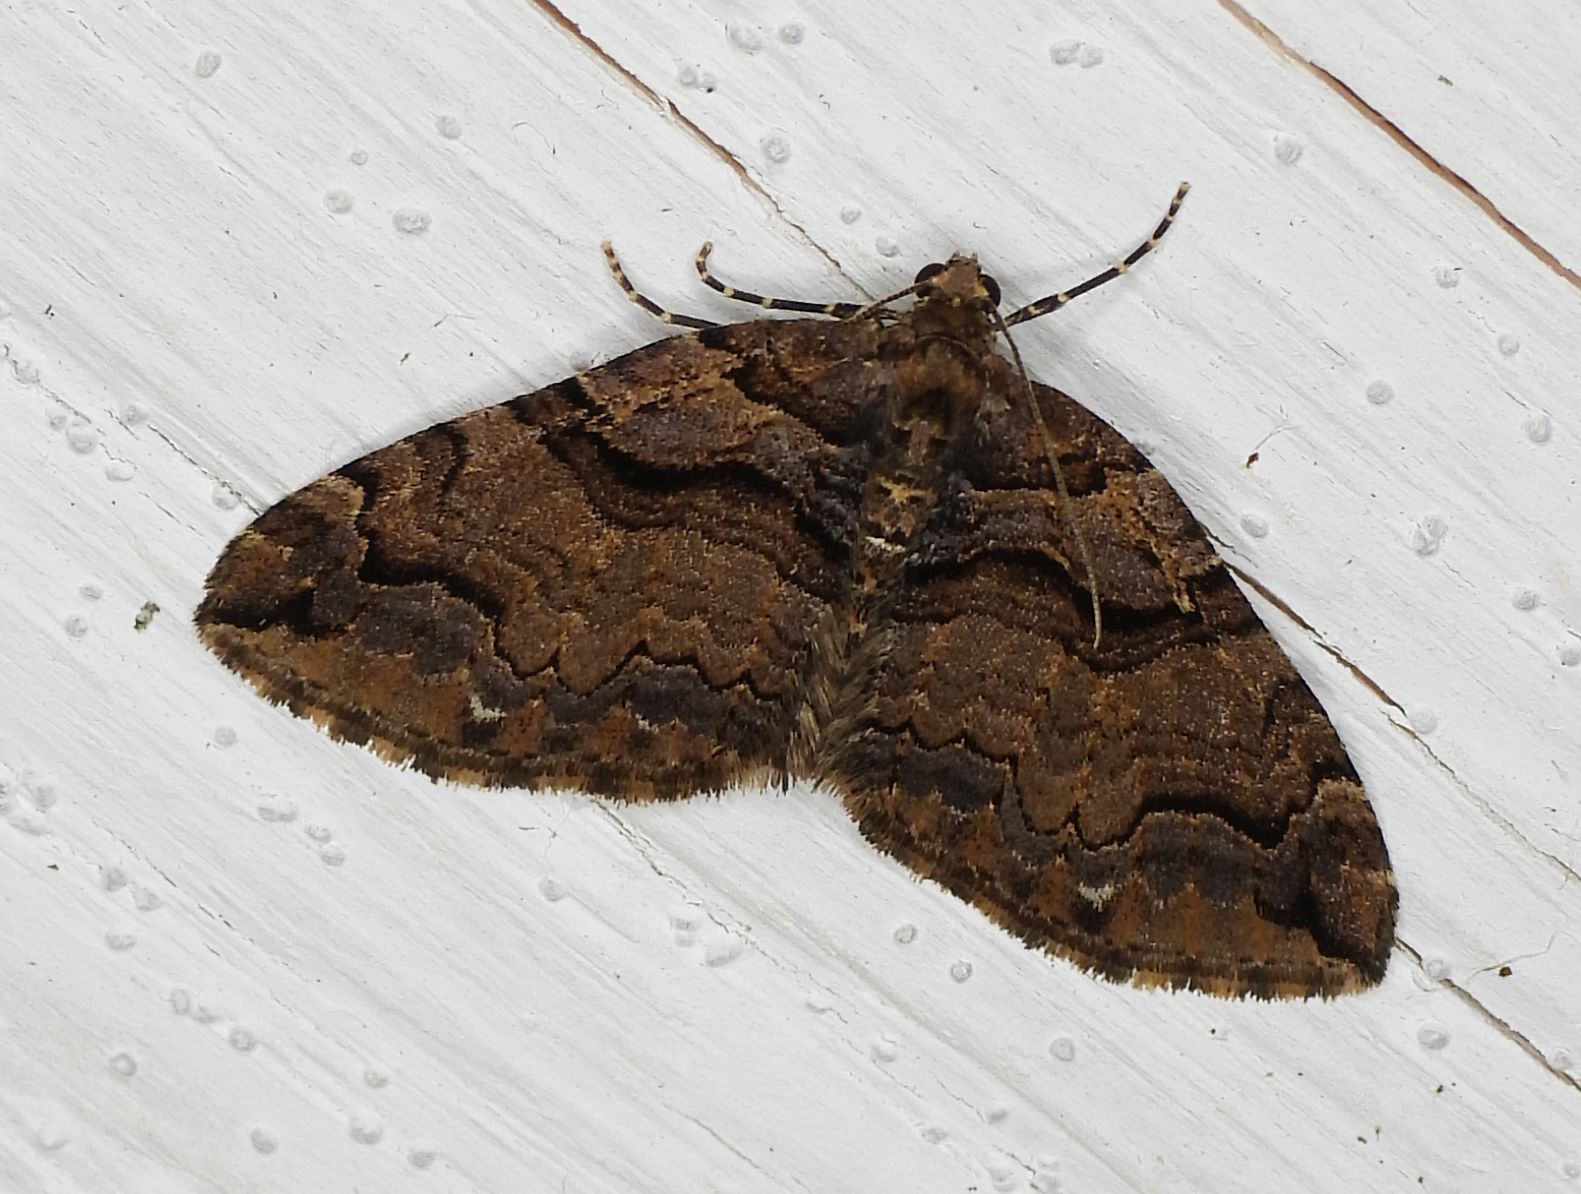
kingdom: Animalia
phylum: Arthropoda
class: Insecta
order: Lepidoptera
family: Geometridae
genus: Anticlea
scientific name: Anticlea vasiliata
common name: Variable carpet
